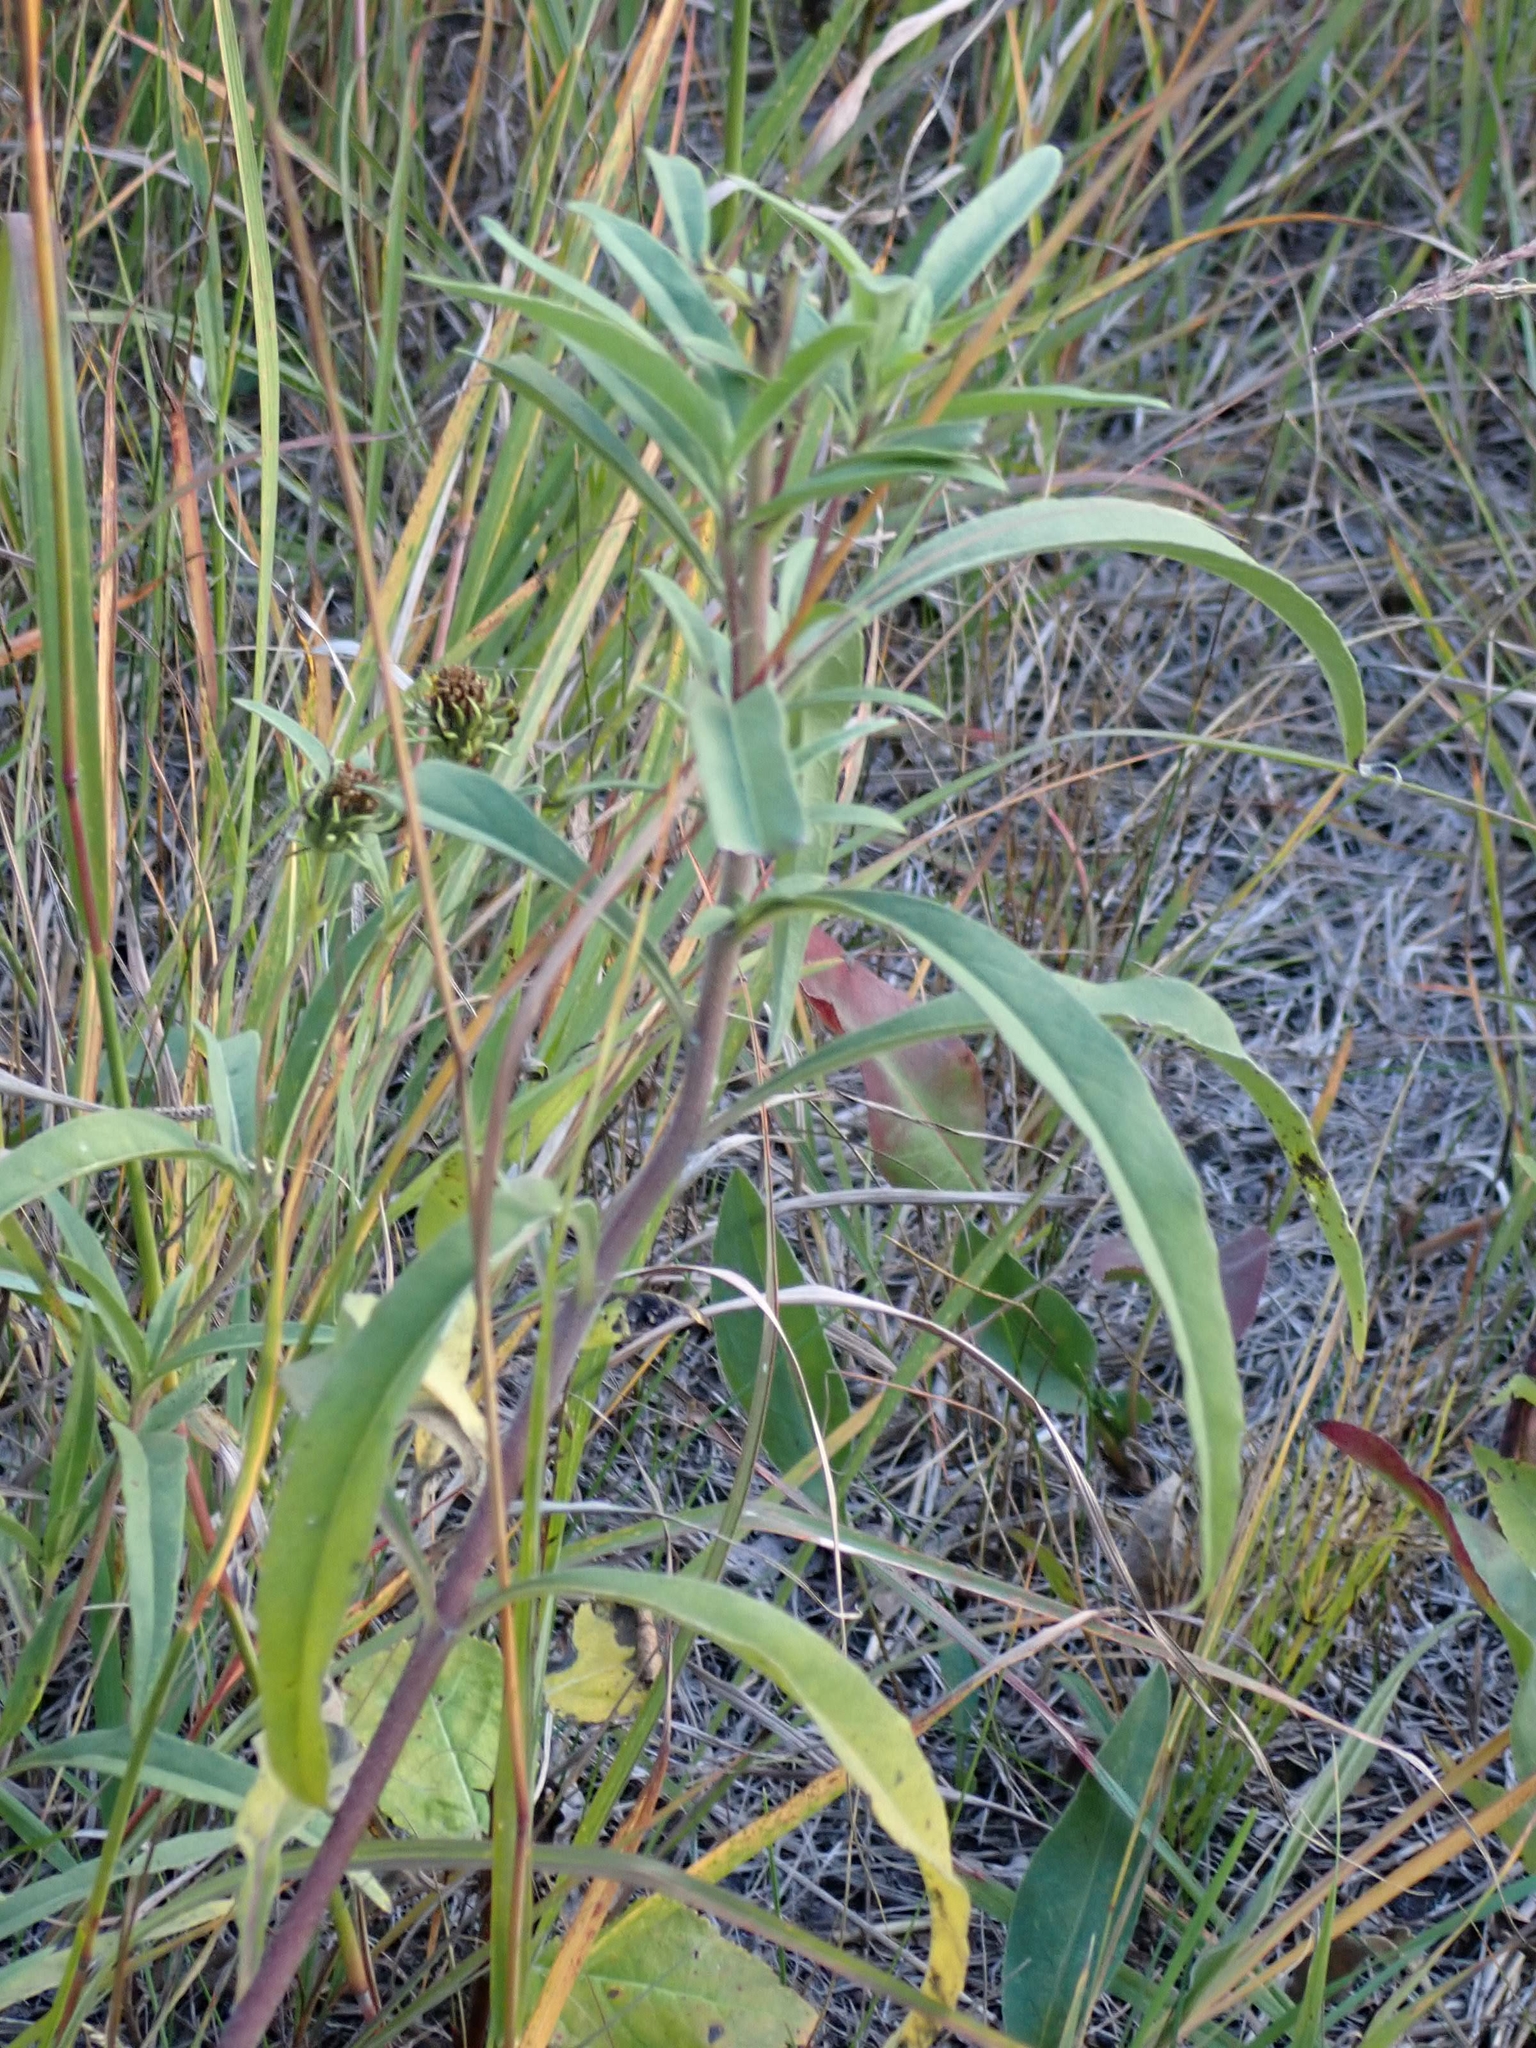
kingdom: Plantae
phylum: Tracheophyta
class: Magnoliopsida
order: Asterales
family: Asteraceae
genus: Helianthus
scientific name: Helianthus maximiliani
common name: Maximilian's sunflower
